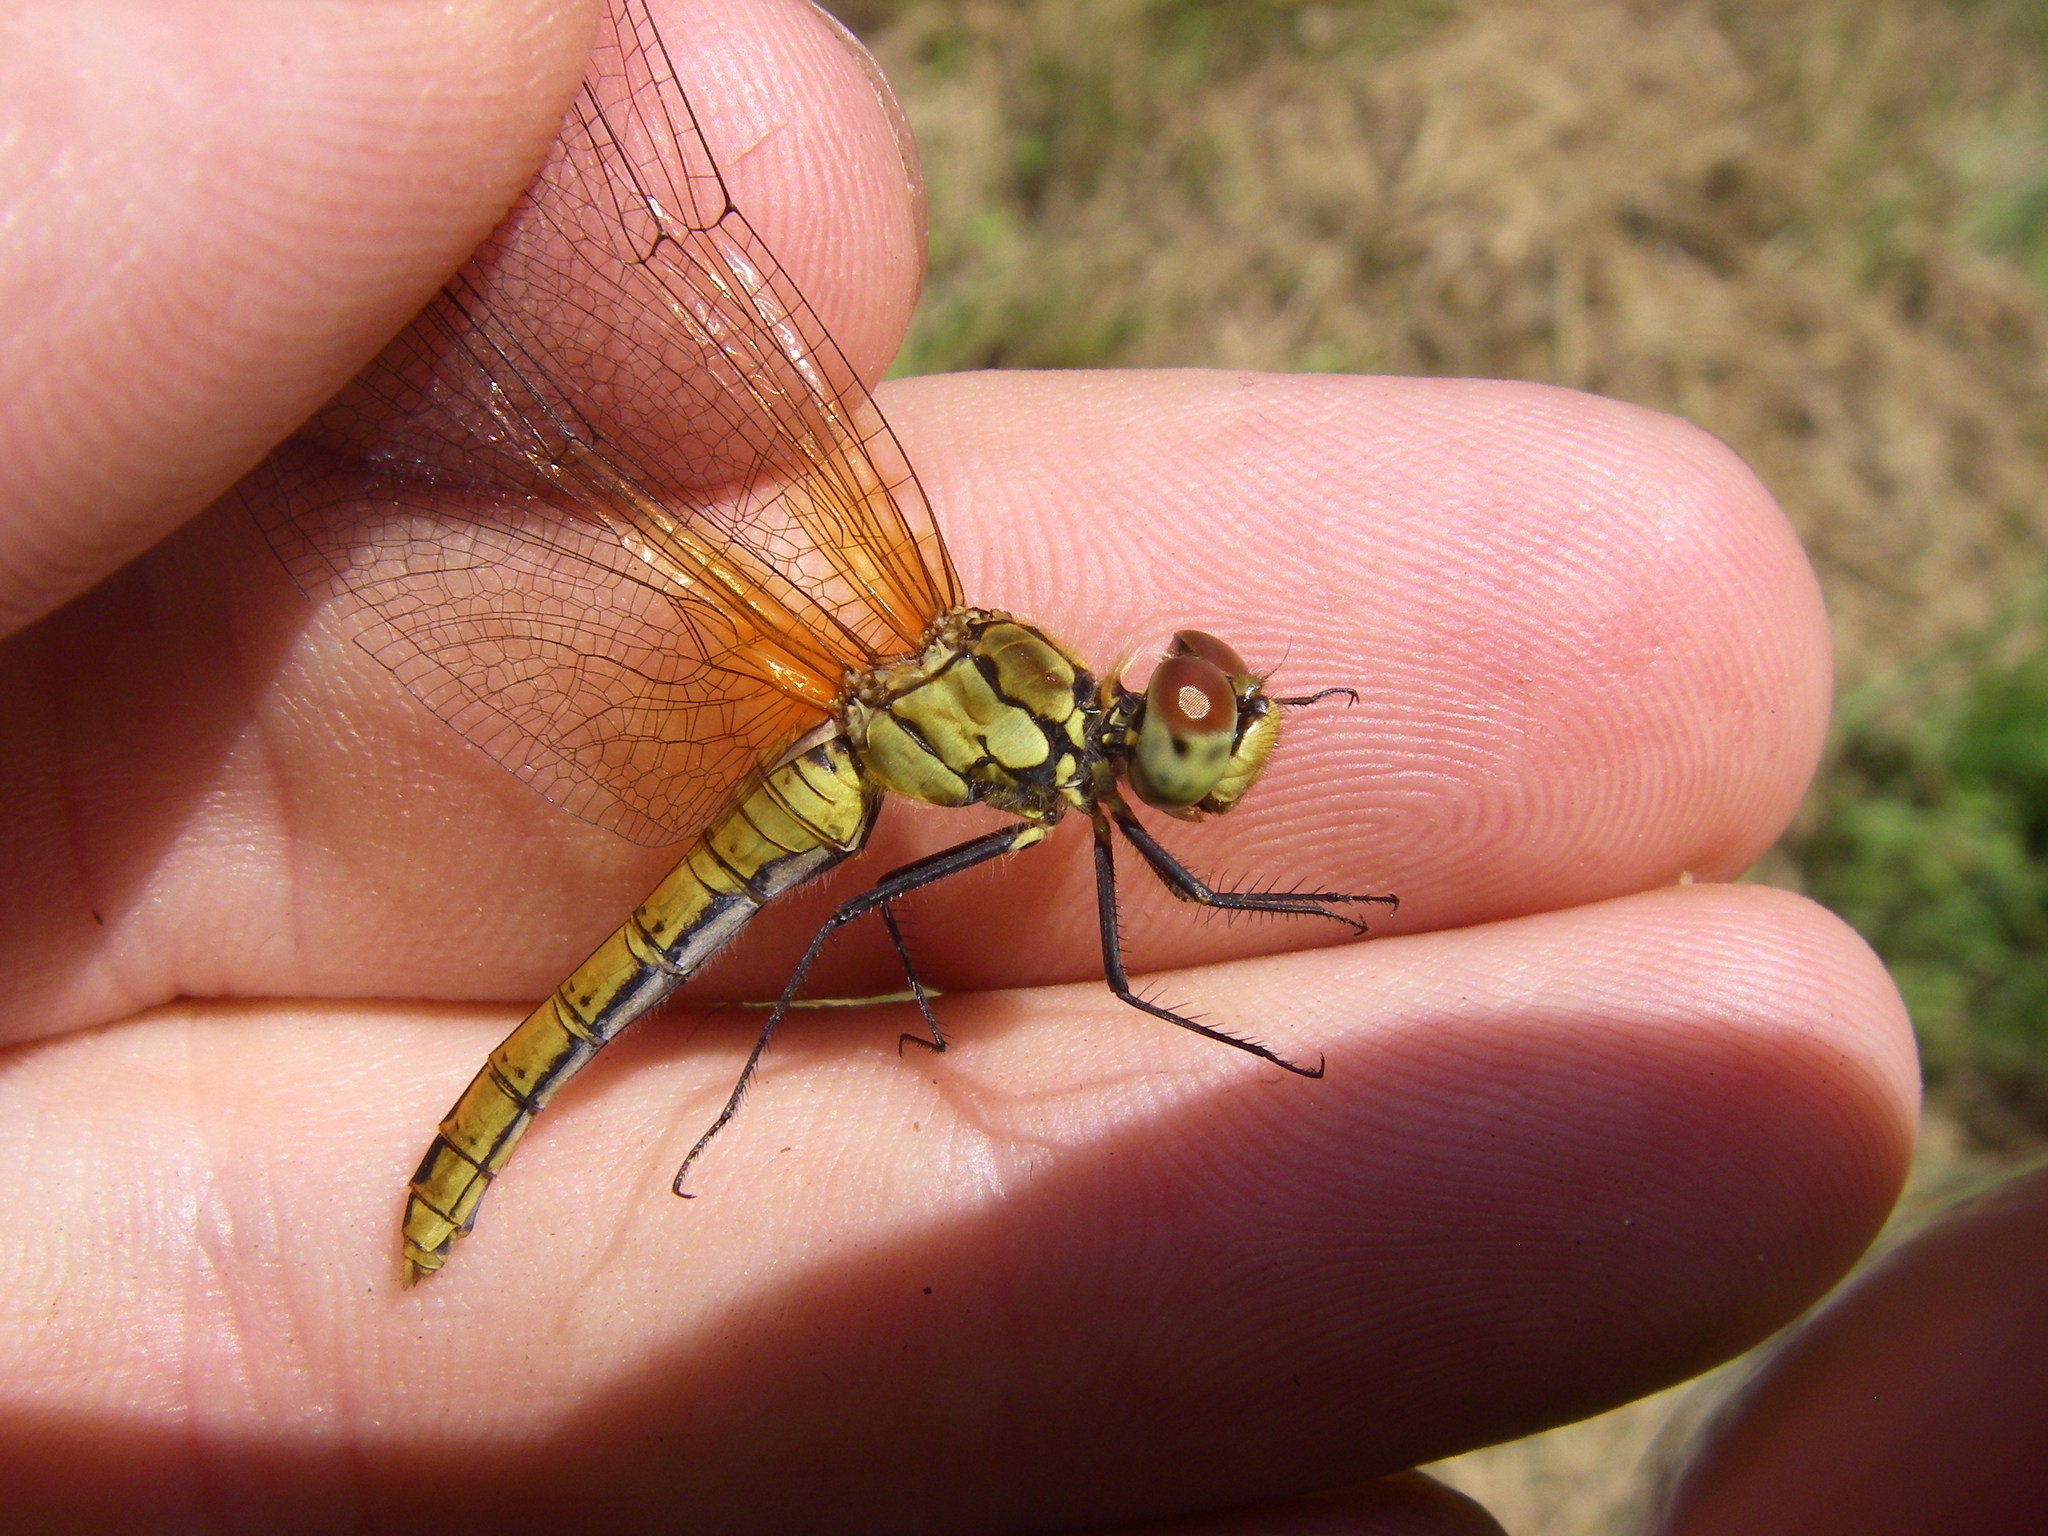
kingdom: Animalia
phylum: Arthropoda
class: Insecta
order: Odonata
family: Libellulidae
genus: Sympetrum
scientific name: Sympetrum sanguineum
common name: Ruddy darter
